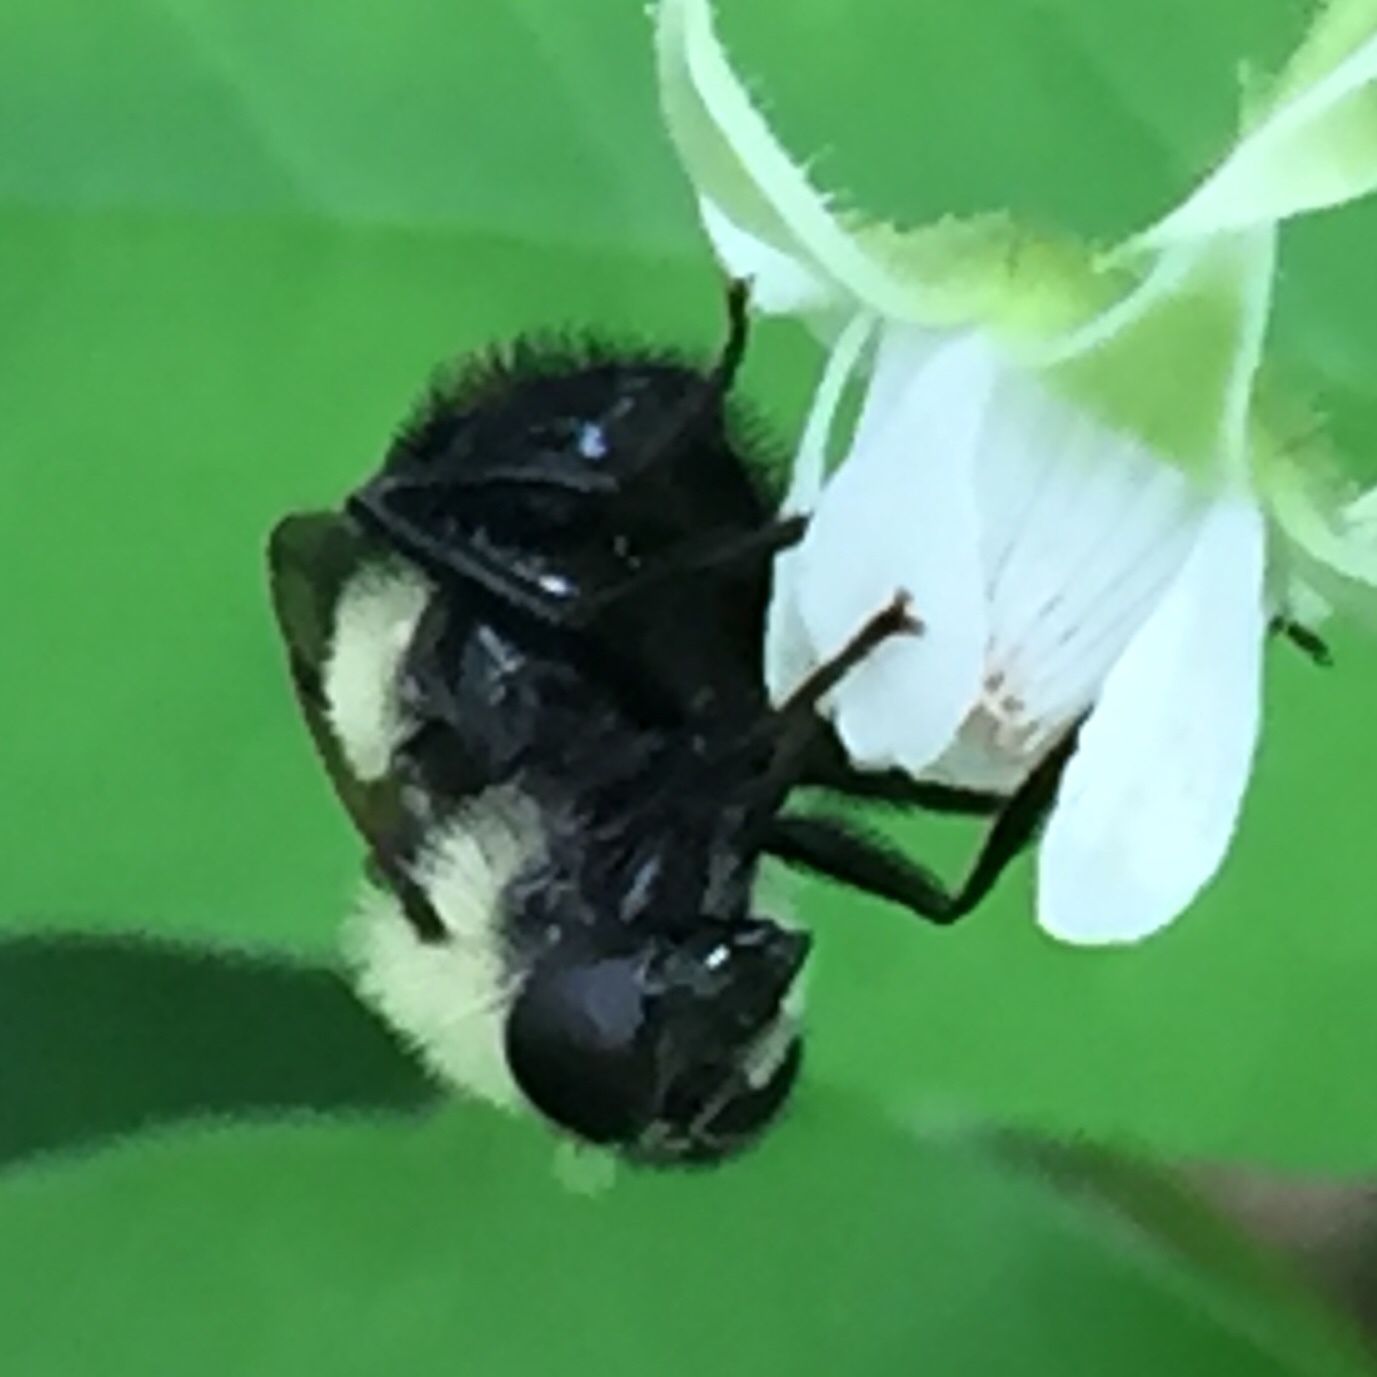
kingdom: Animalia
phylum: Arthropoda
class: Insecta
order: Diptera
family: Syrphidae
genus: Volucella
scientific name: Volucella evecta
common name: Eastern swiftwing
